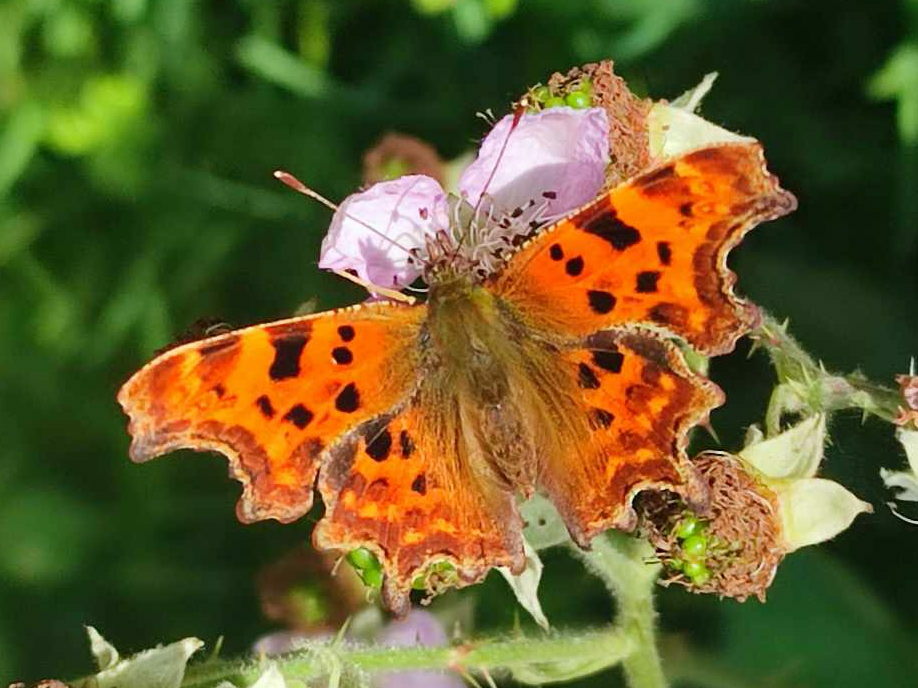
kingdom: Animalia
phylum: Arthropoda
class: Insecta
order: Lepidoptera
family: Nymphalidae
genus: Polygonia
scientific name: Polygonia c-album
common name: Comma
